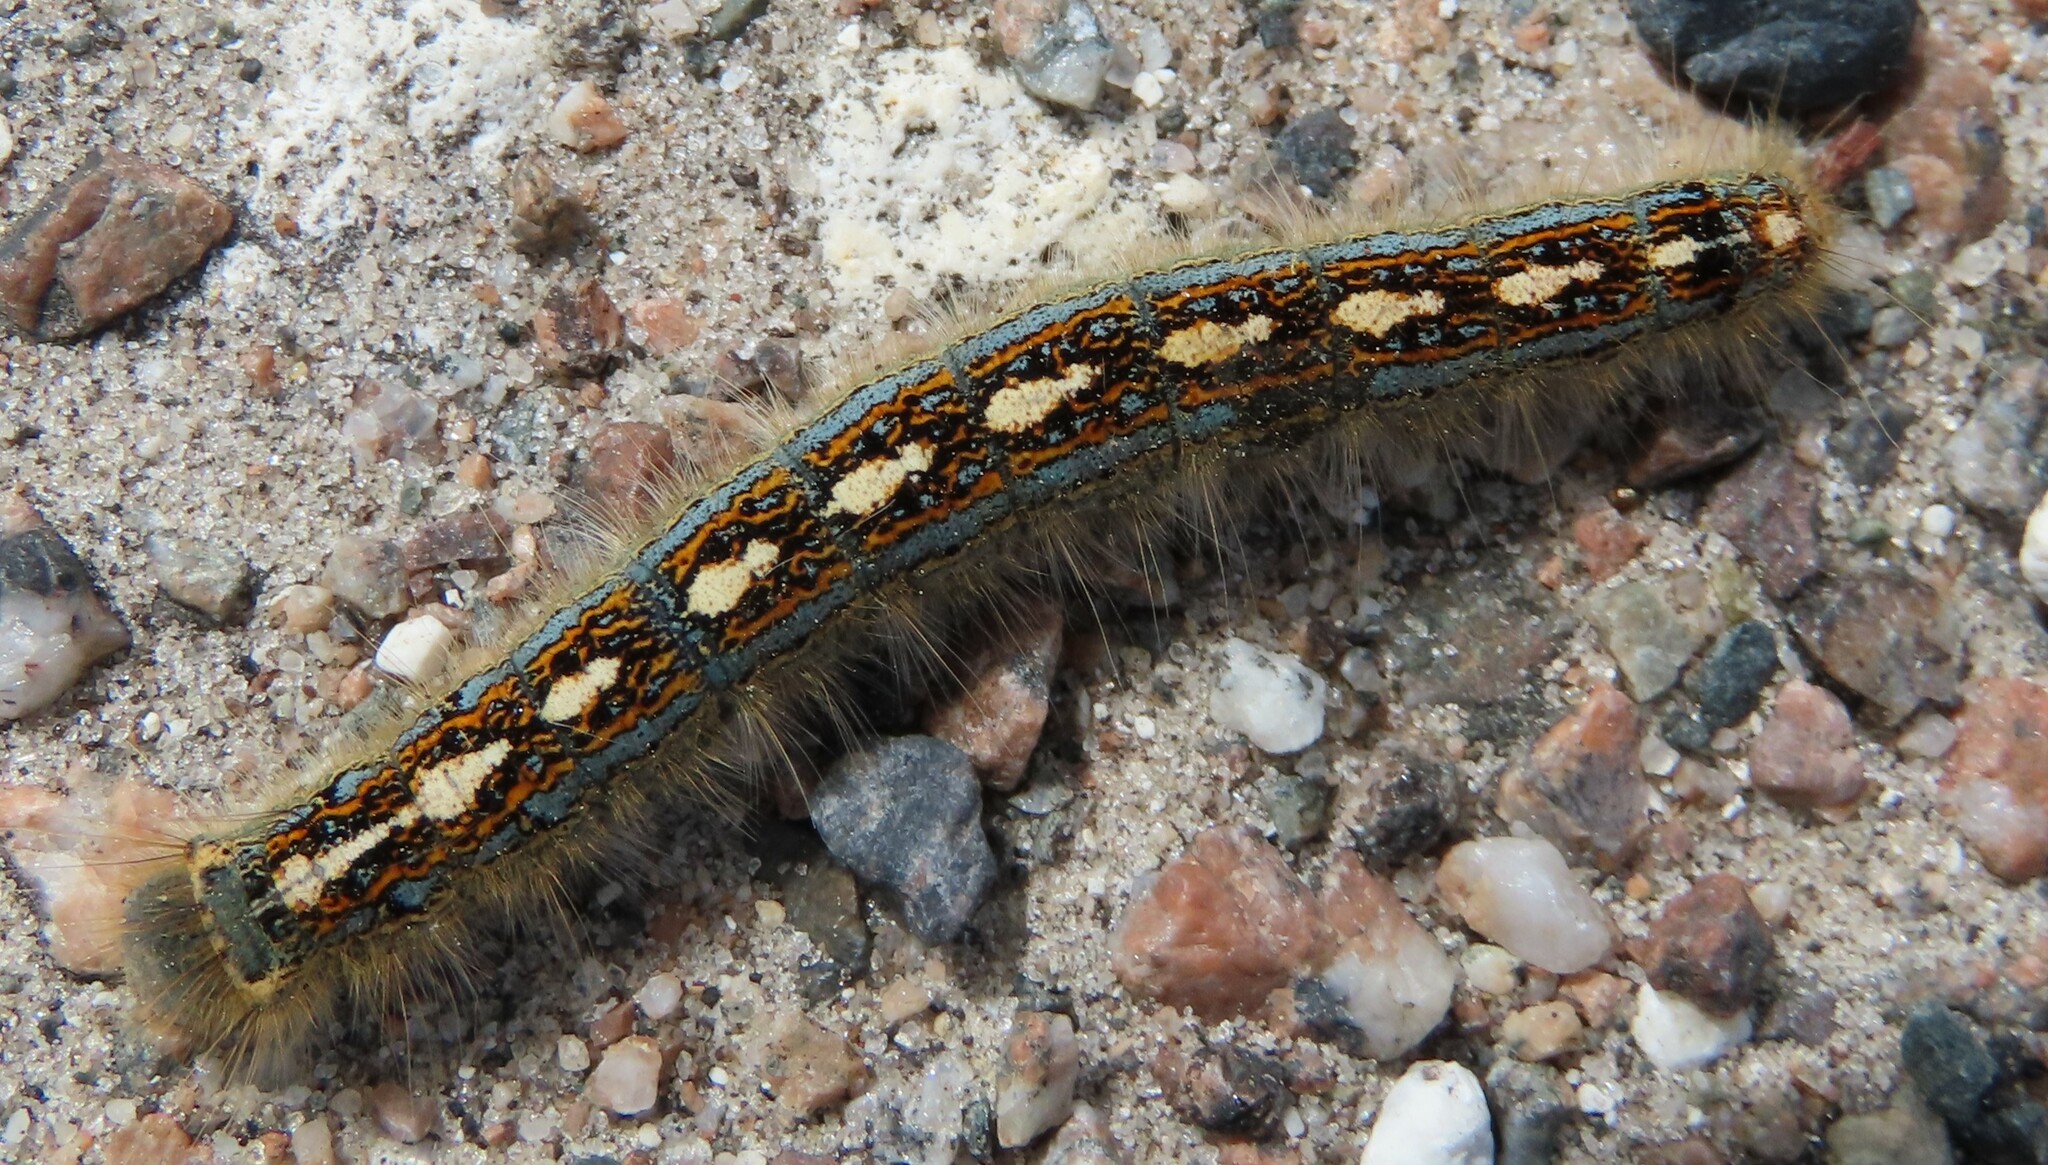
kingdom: Animalia
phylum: Arthropoda
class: Insecta
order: Lepidoptera
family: Lasiocampidae
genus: Malacosoma
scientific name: Malacosoma disstria
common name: Forest tent caterpillar
